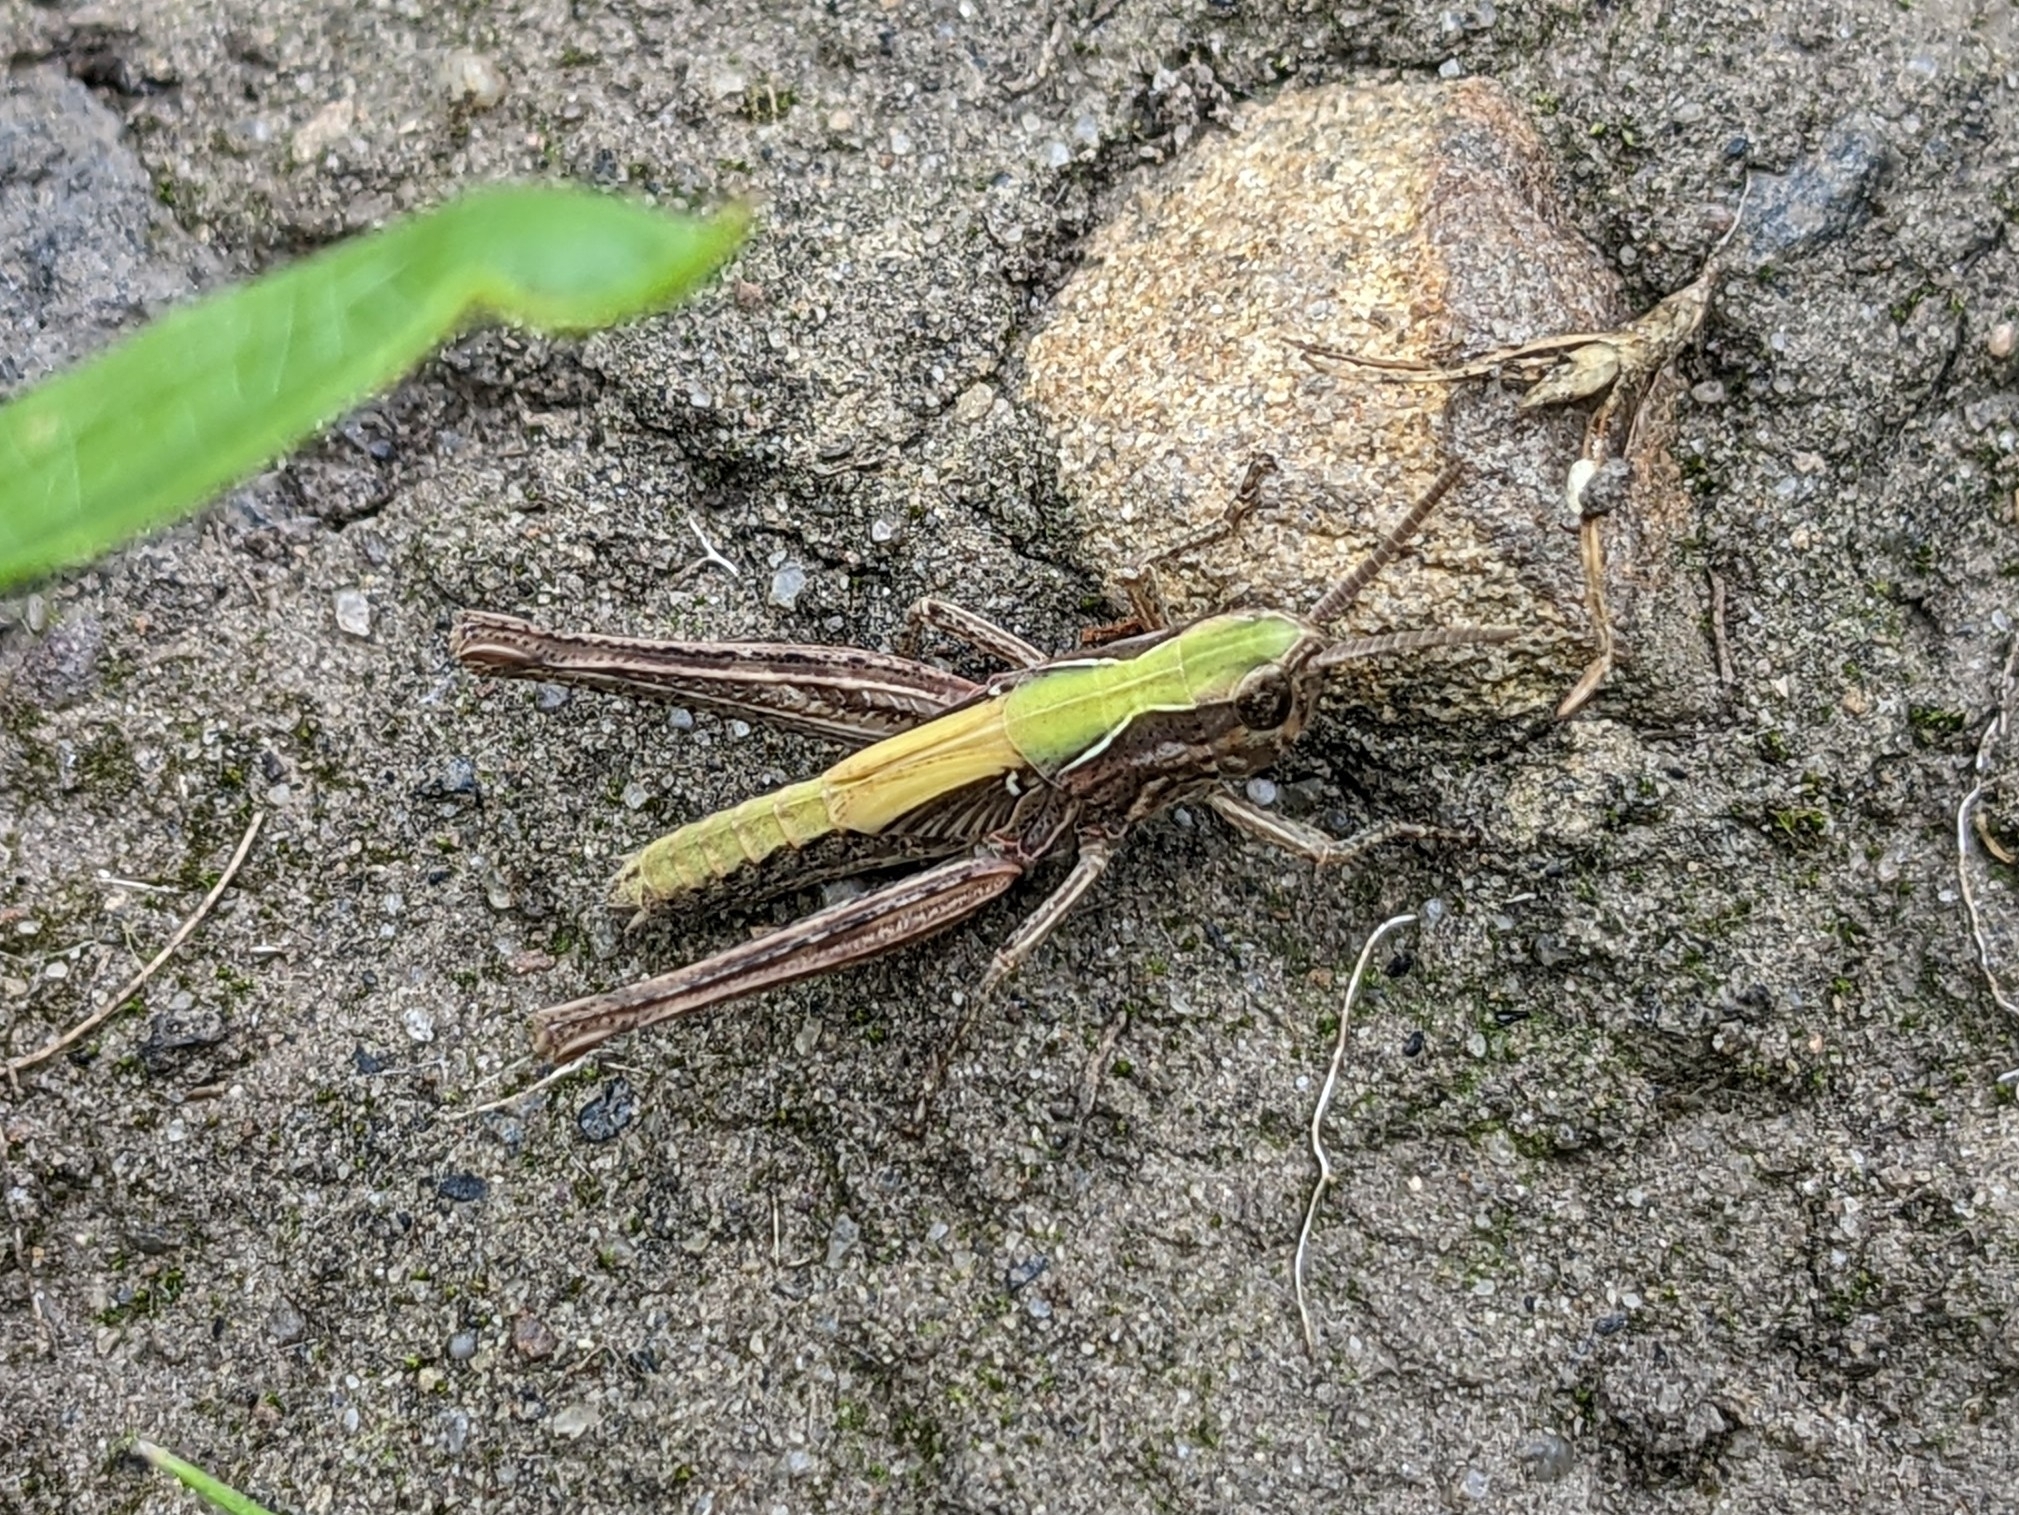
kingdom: Animalia
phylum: Arthropoda
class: Insecta
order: Orthoptera
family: Acrididae
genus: Chorthippus
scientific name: Chorthippus brunneus
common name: Field grasshopper
